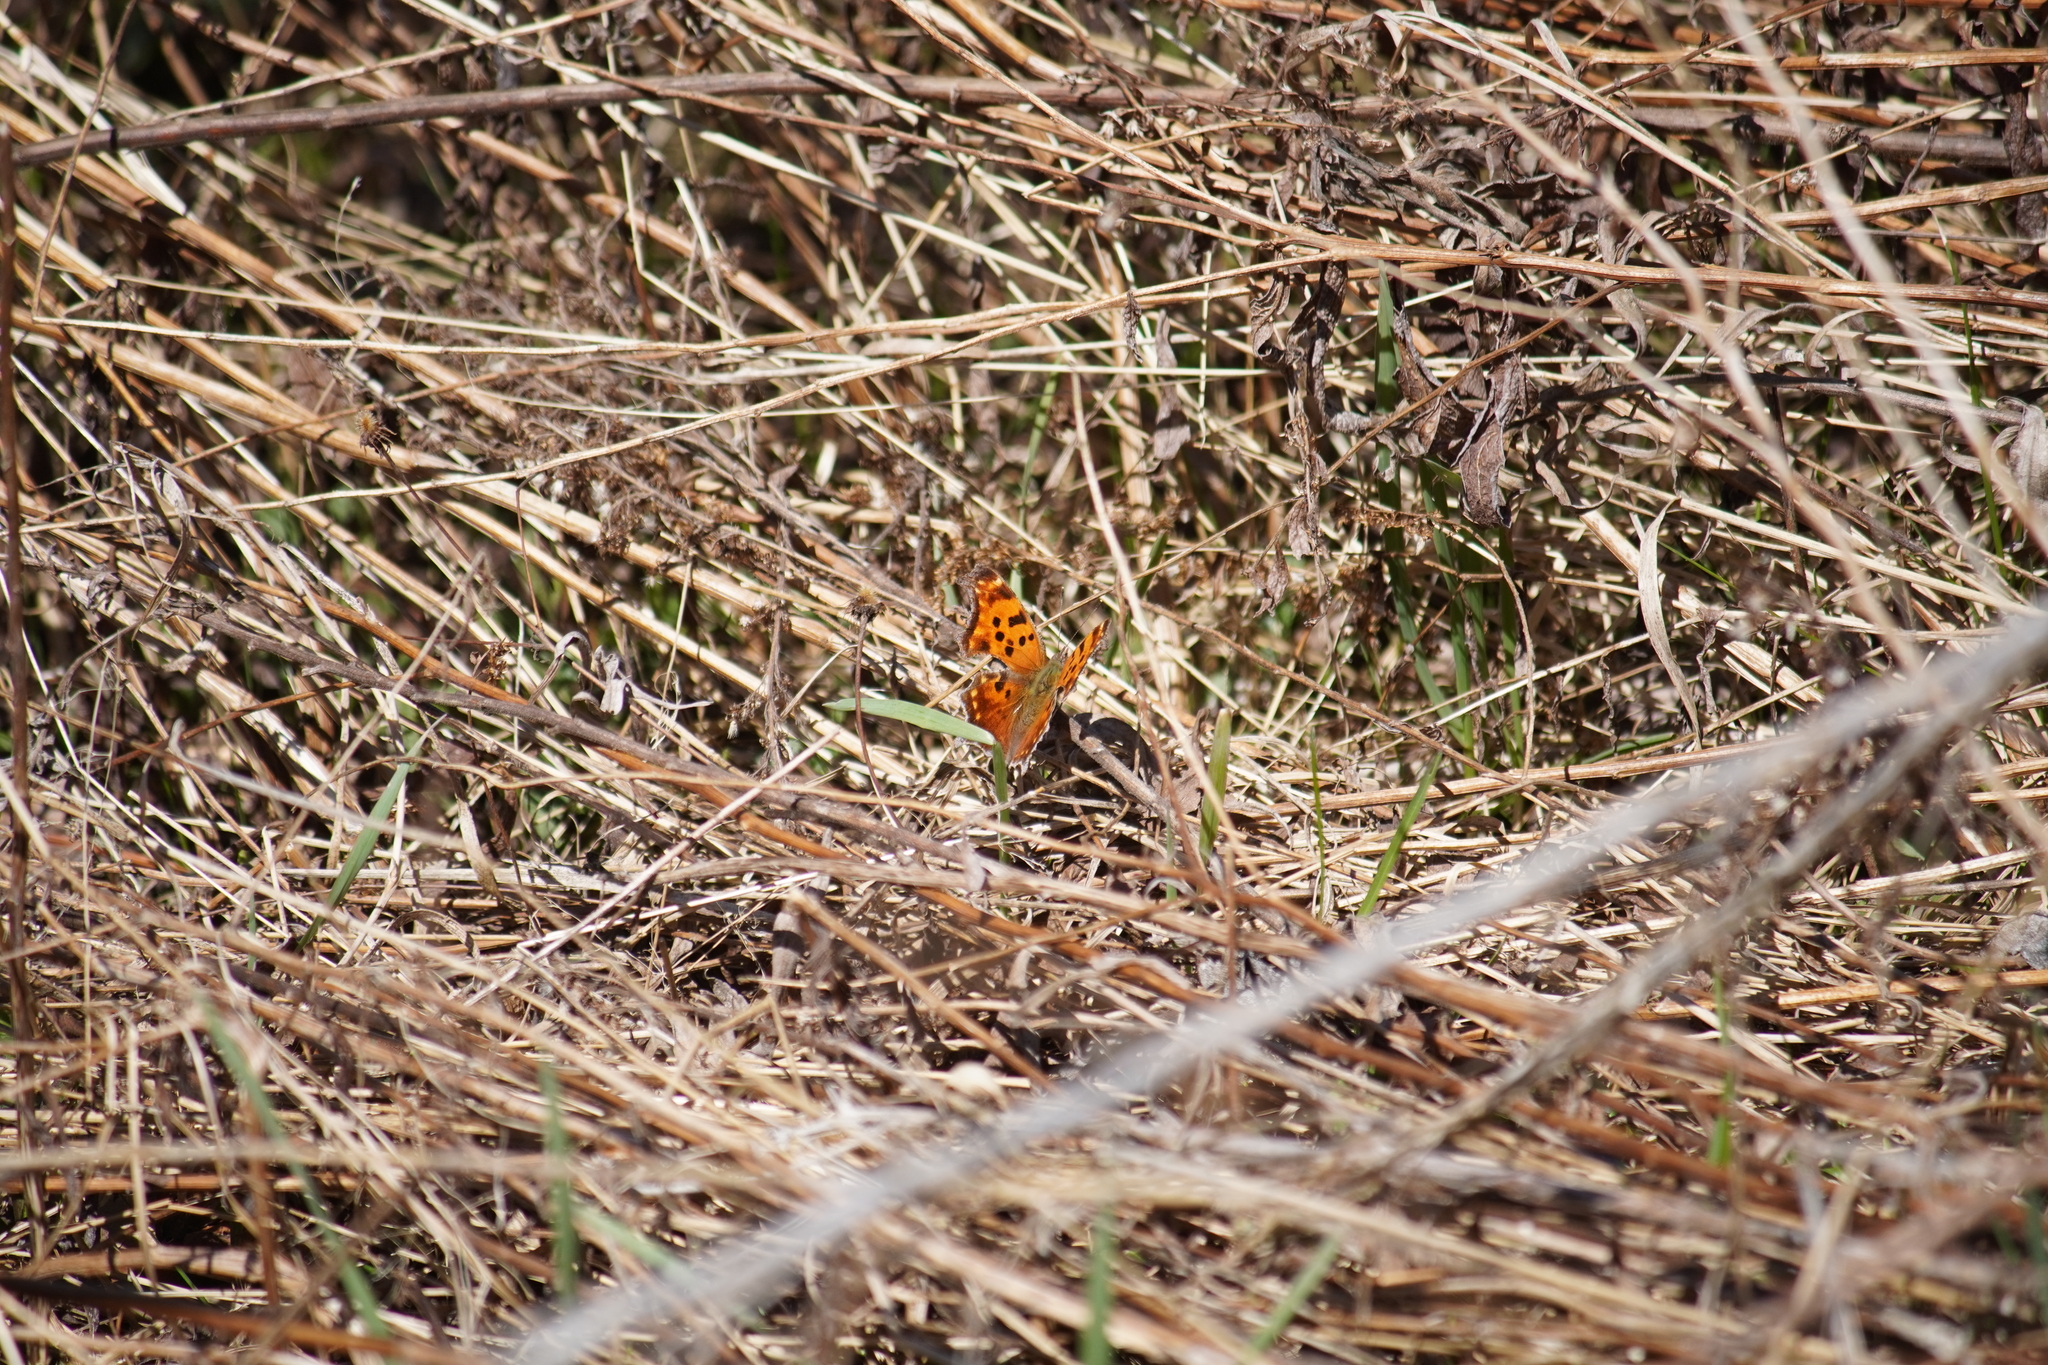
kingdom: Animalia
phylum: Arthropoda
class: Insecta
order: Lepidoptera
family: Nymphalidae
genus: Polygonia
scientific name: Polygonia comma
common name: Eastern comma
